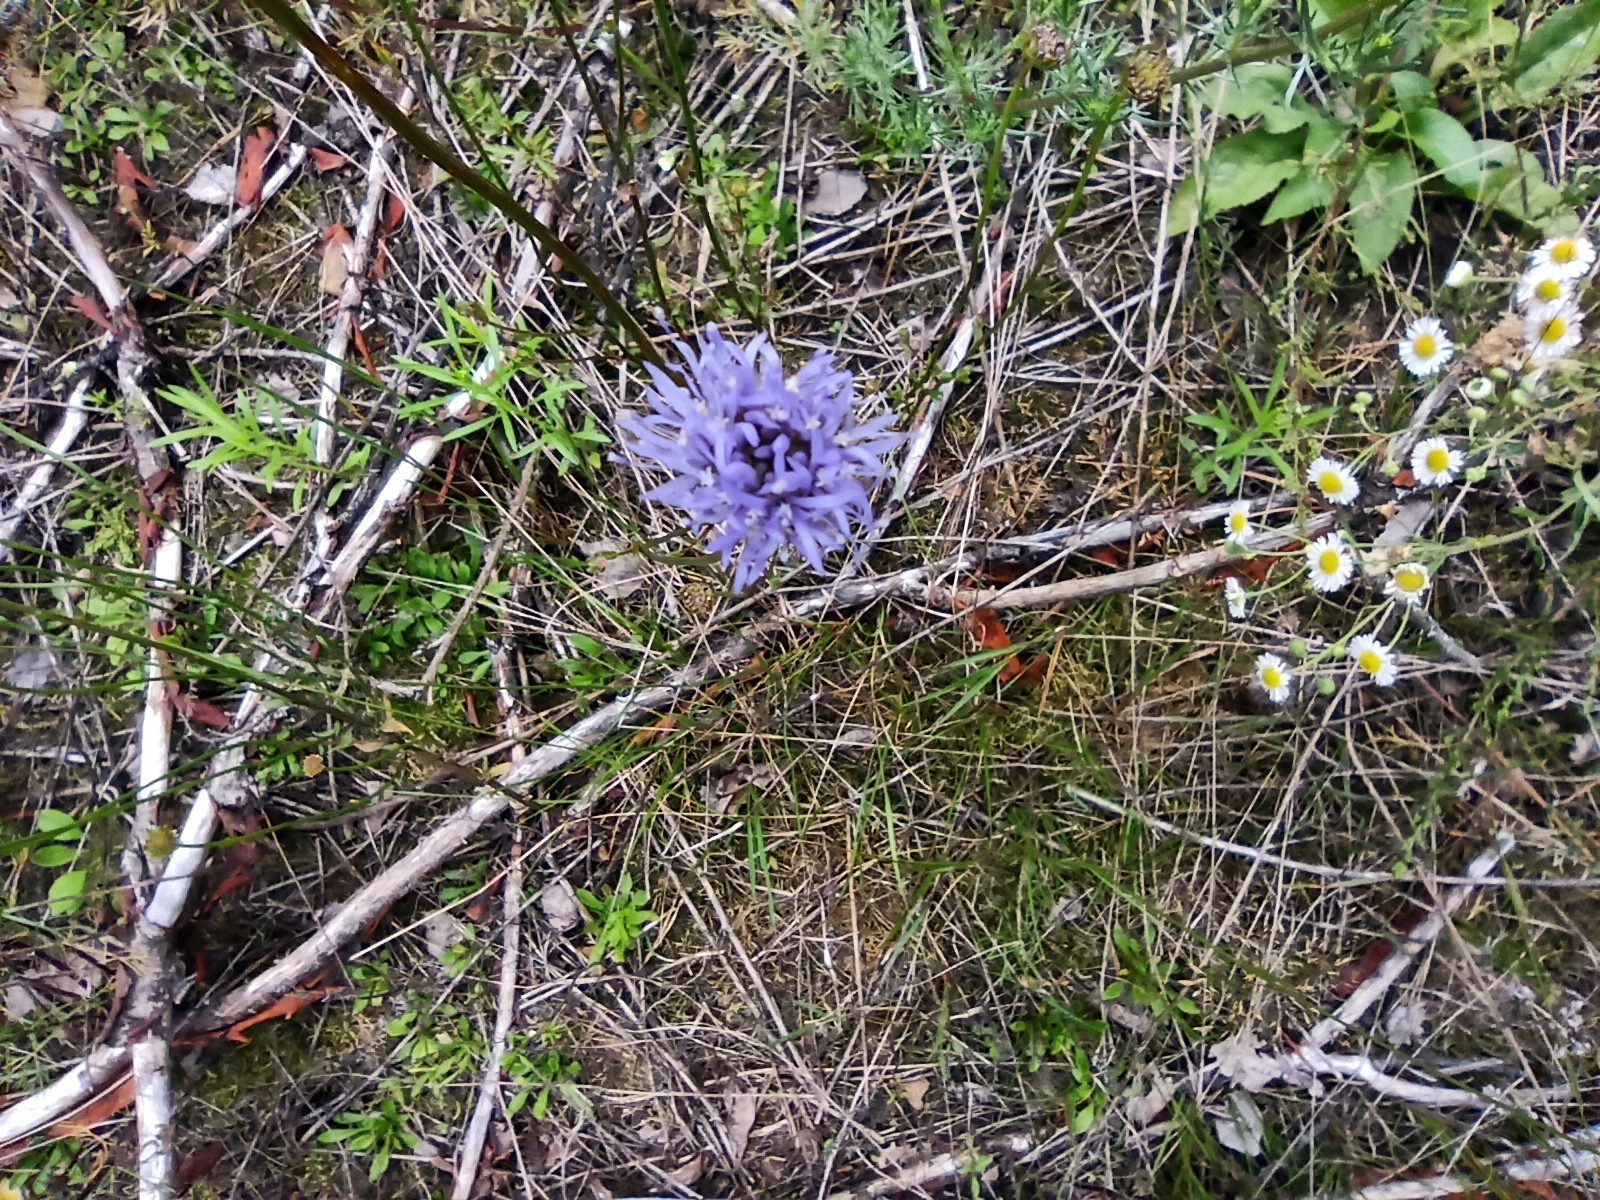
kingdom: Plantae
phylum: Tracheophyta
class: Magnoliopsida
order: Asterales
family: Campanulaceae
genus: Jasione
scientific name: Jasione montana
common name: Sheep's-bit
